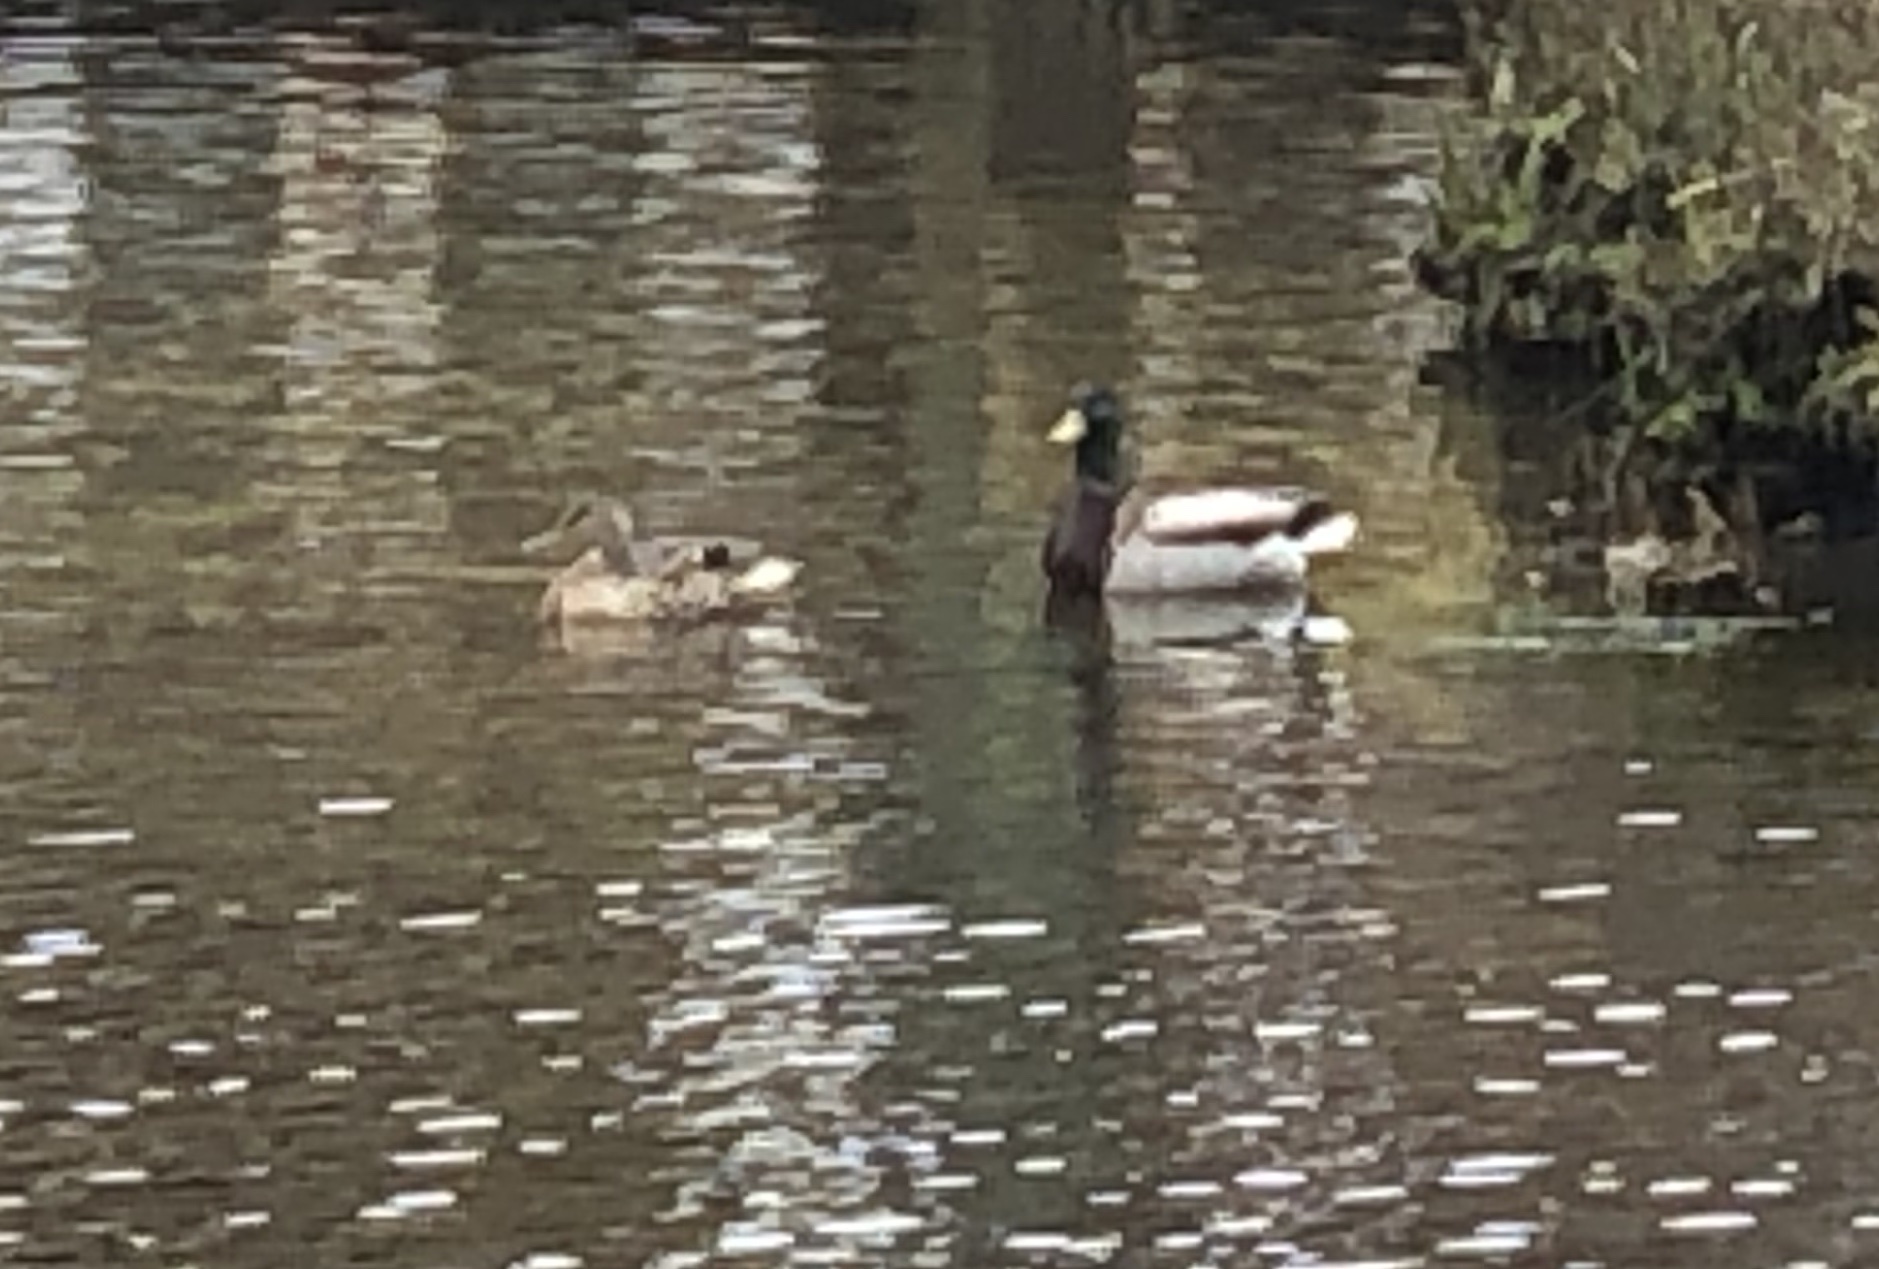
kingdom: Animalia
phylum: Chordata
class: Aves
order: Anseriformes
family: Anatidae
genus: Anas
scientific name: Anas platyrhynchos
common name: Mallard
